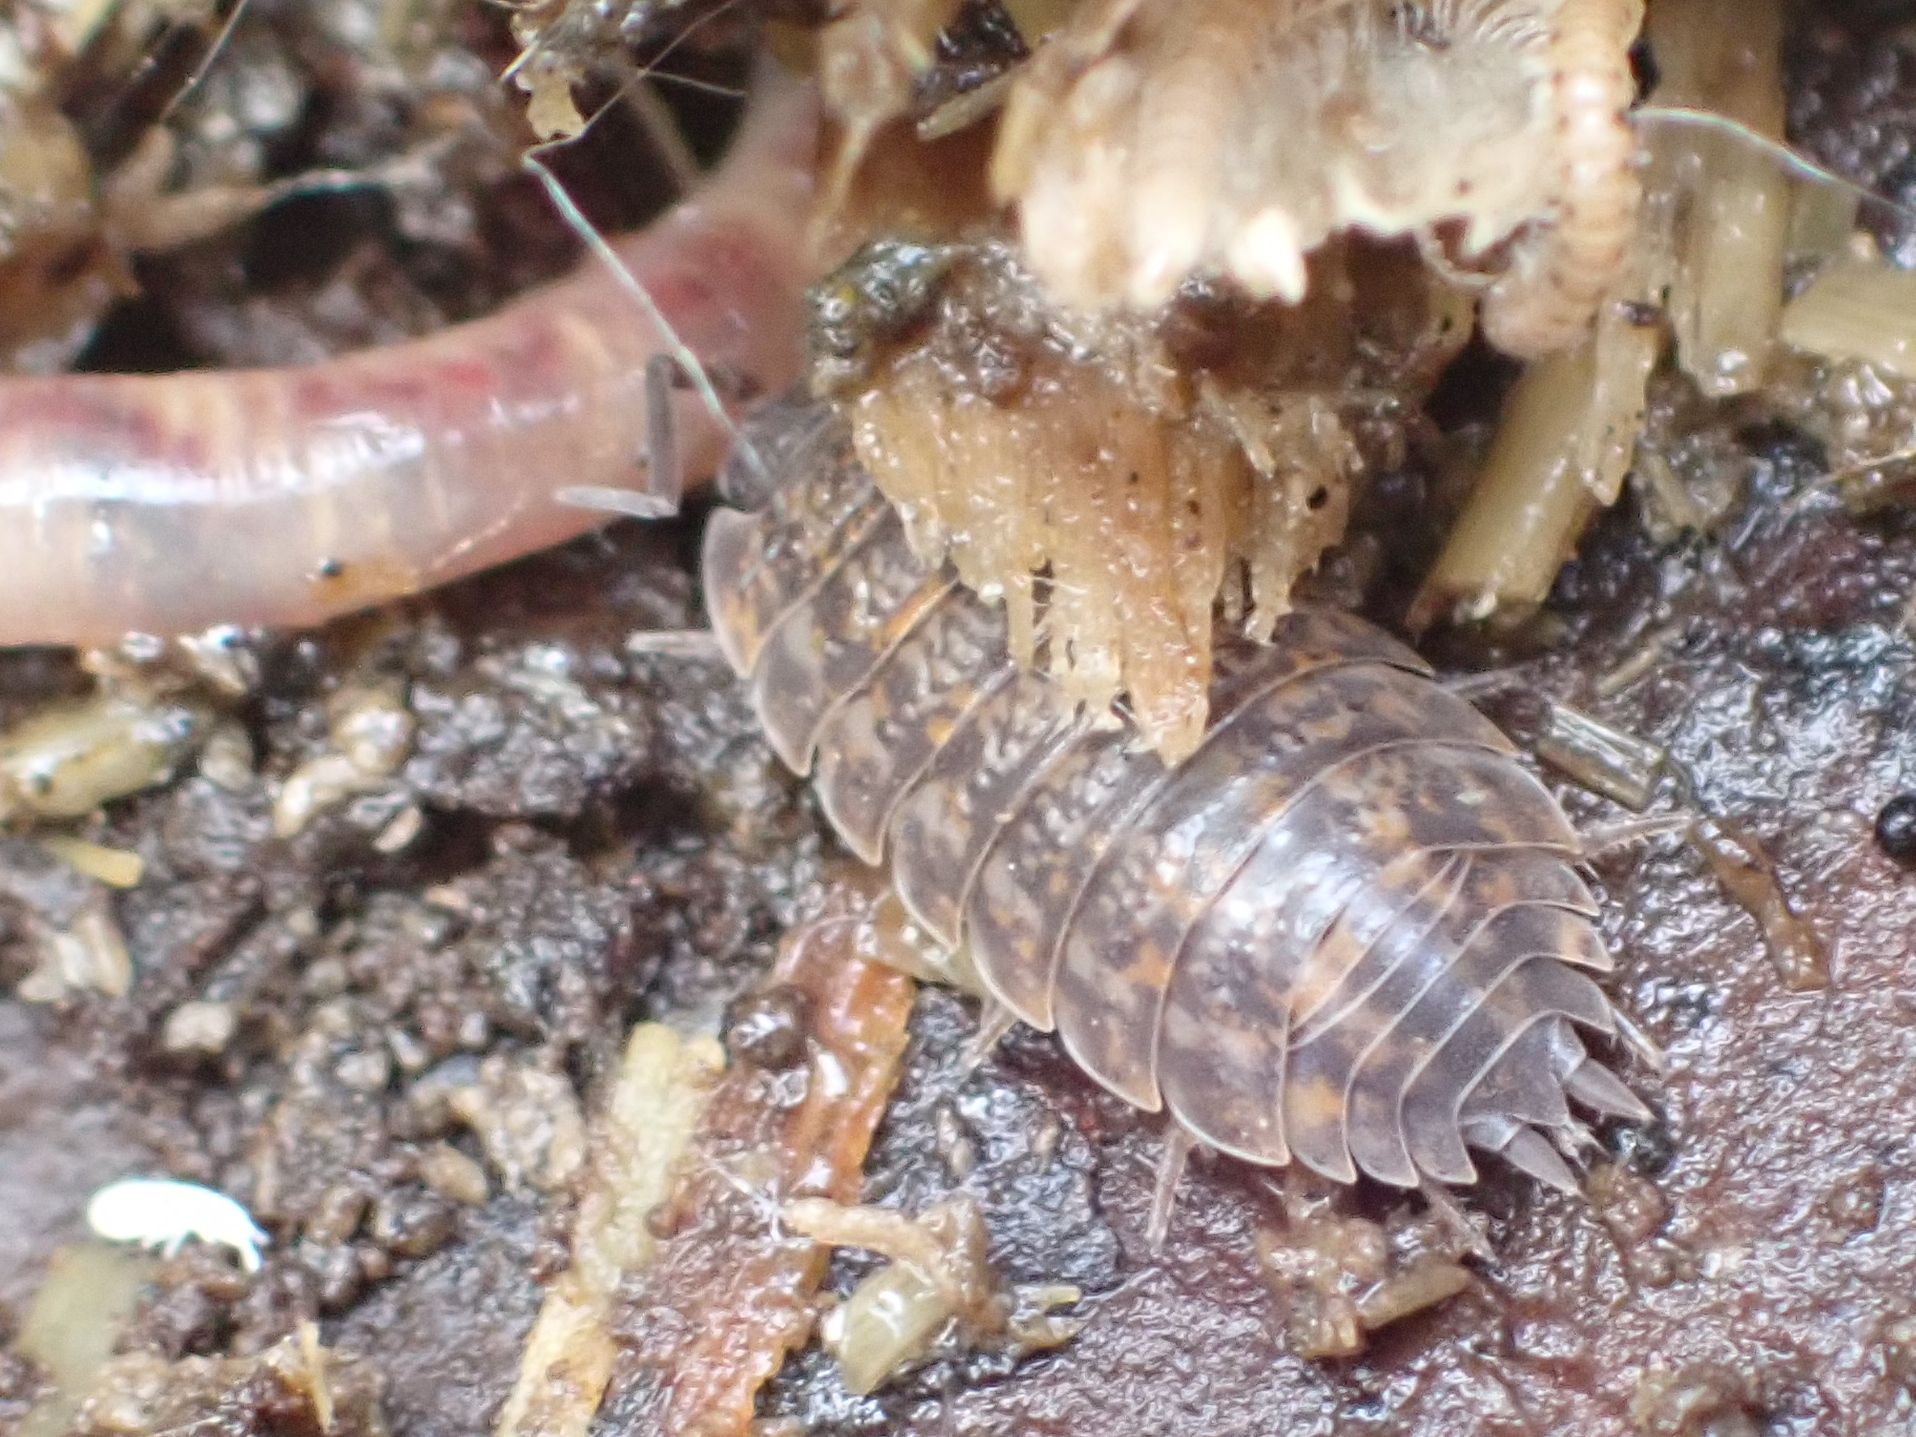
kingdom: Animalia
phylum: Arthropoda
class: Malacostraca
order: Isopoda
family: Trachelipodidae
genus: Trachelipus
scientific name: Trachelipus rathkii
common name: Isopod
